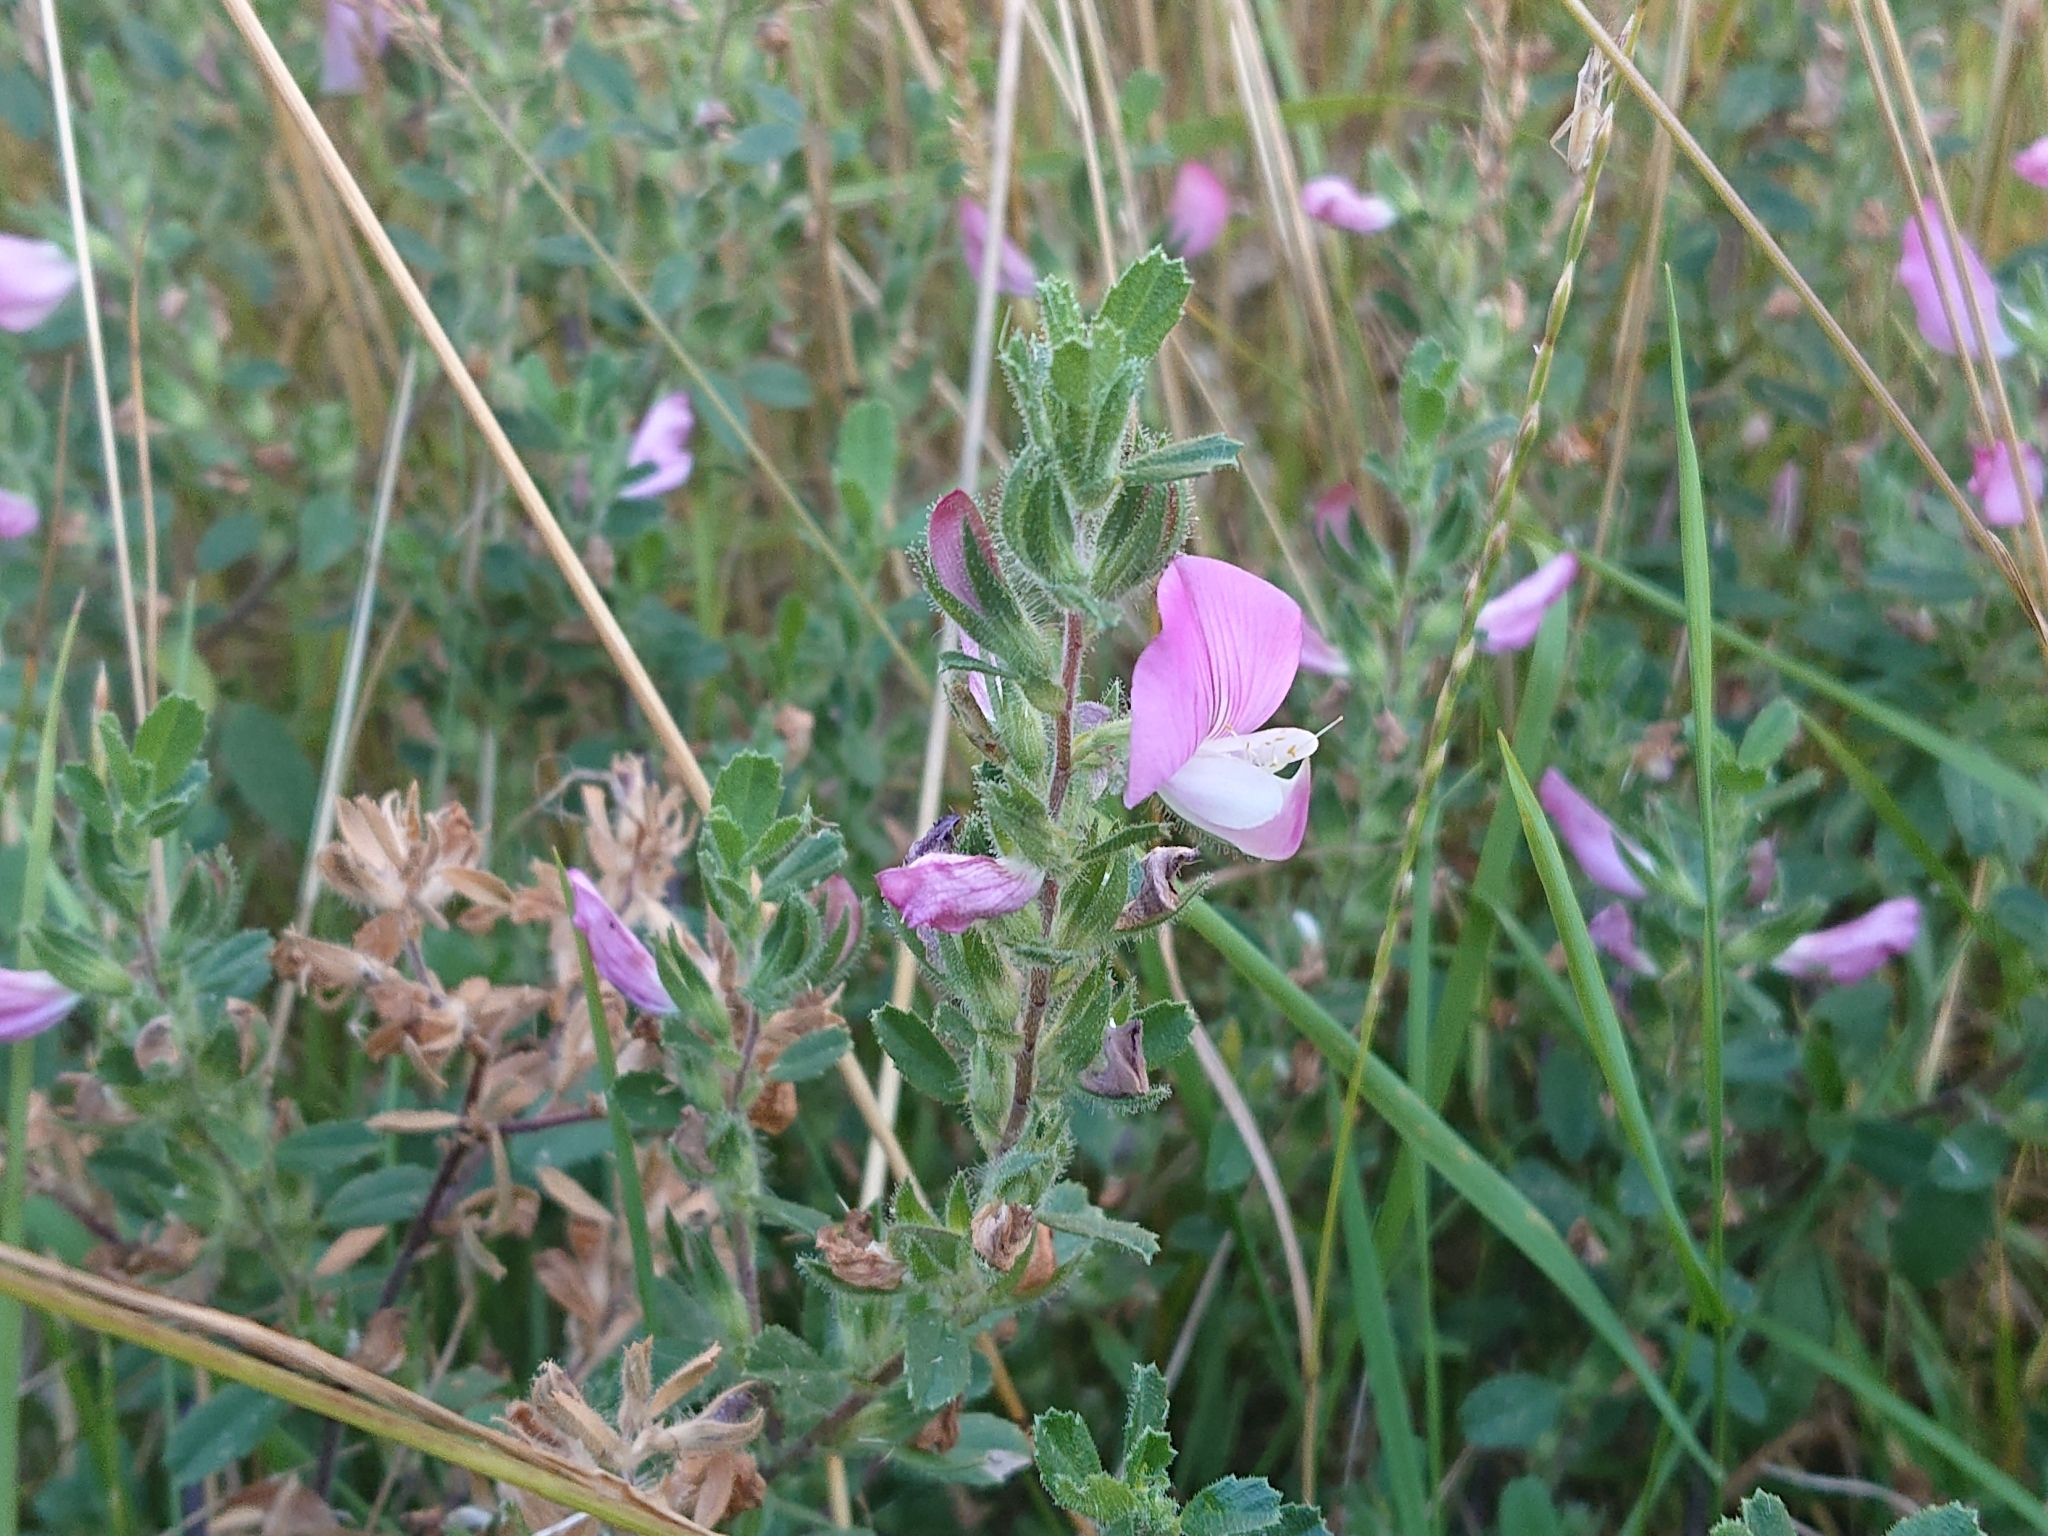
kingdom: Plantae
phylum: Tracheophyta
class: Magnoliopsida
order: Fabales
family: Fabaceae
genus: Ononis
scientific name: Ononis spinosa
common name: Spiny restharrow
